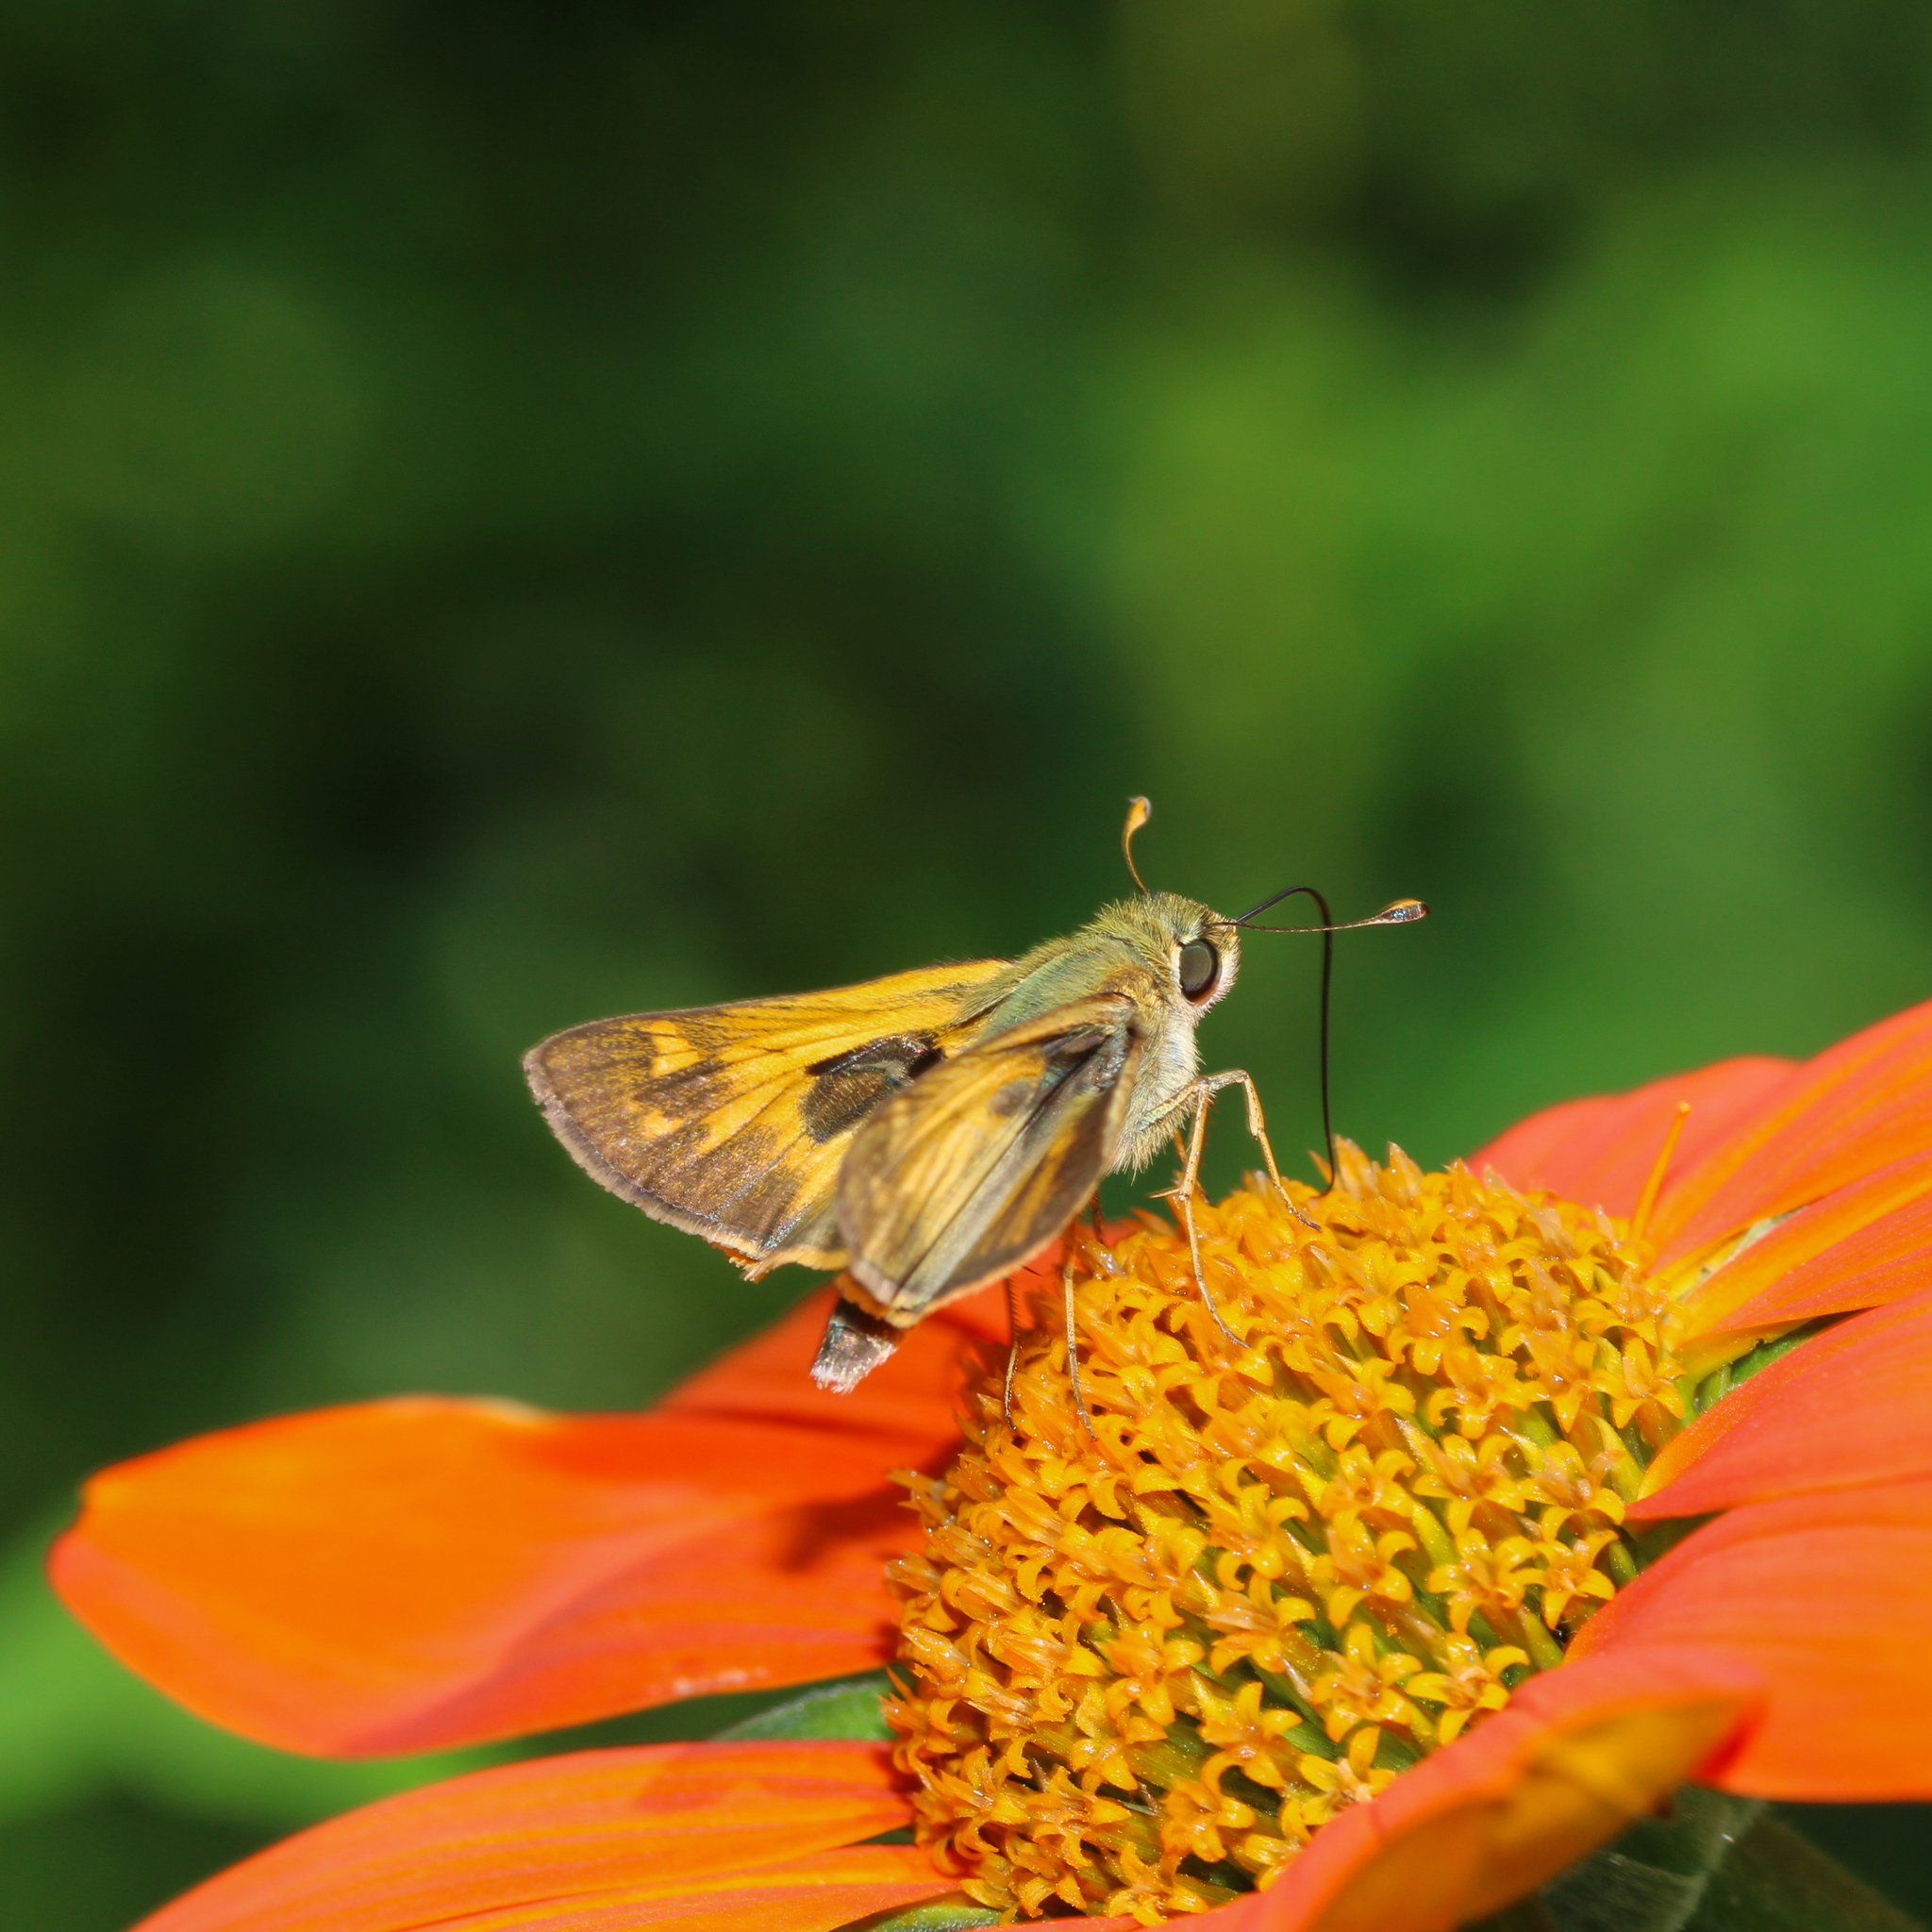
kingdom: Animalia
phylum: Arthropoda
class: Insecta
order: Lepidoptera
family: Hesperiidae
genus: Atalopedes
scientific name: Atalopedes
